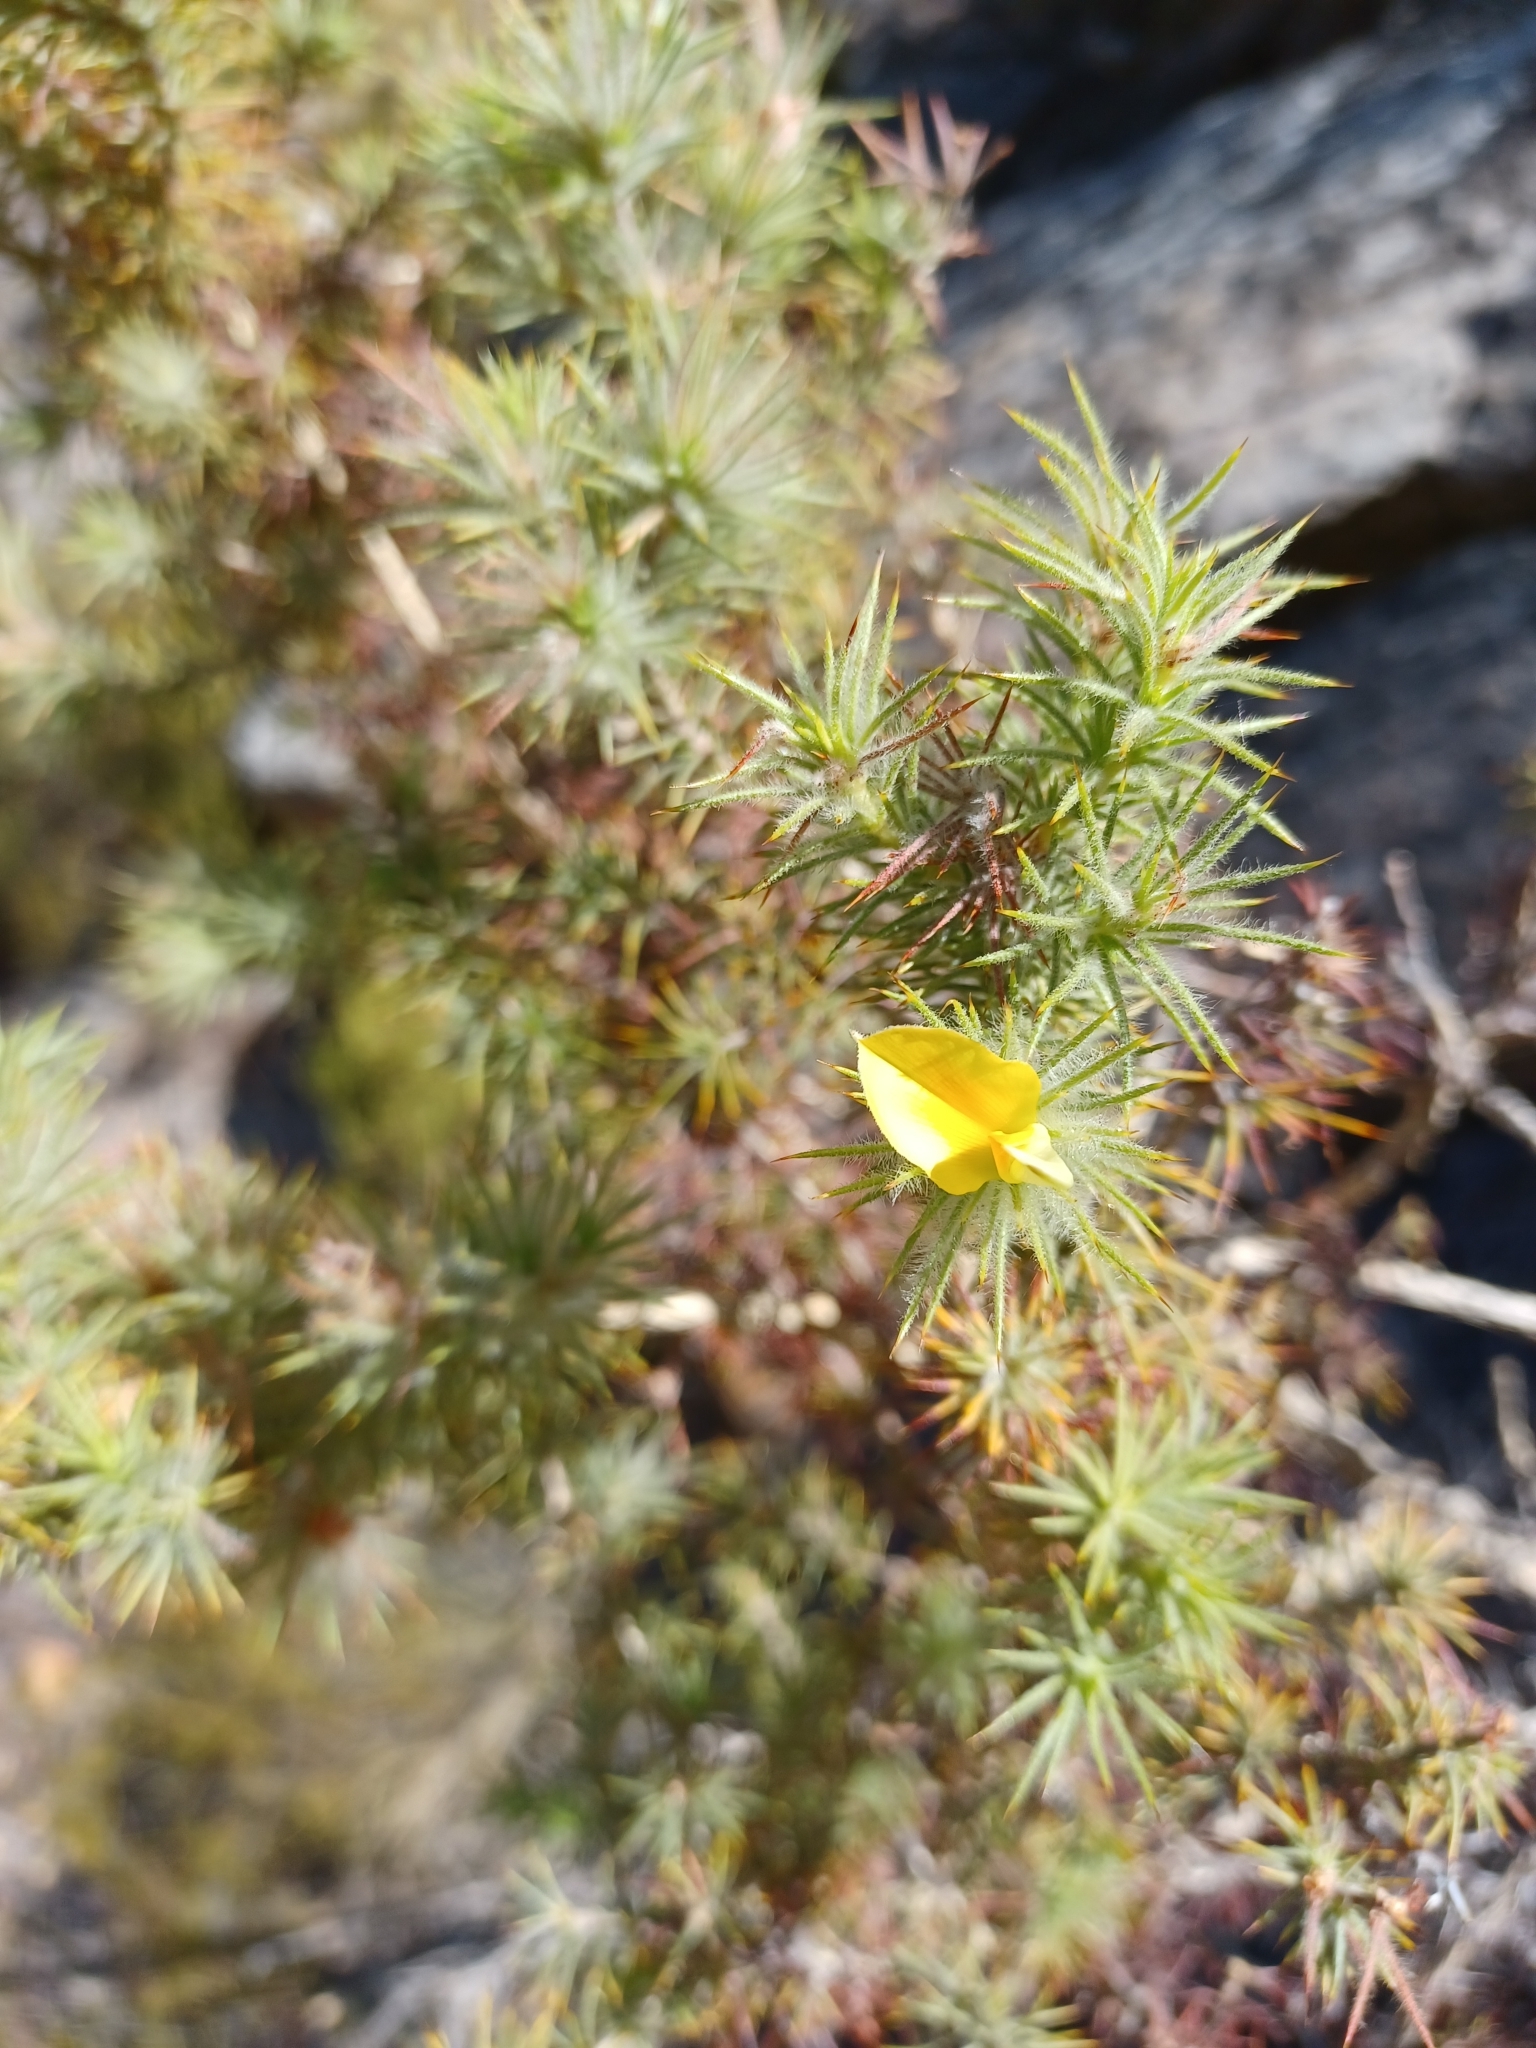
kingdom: Plantae
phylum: Tracheophyta
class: Magnoliopsida
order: Fabales
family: Fabaceae
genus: Aspalathus
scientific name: Aspalathus rubiginosa
